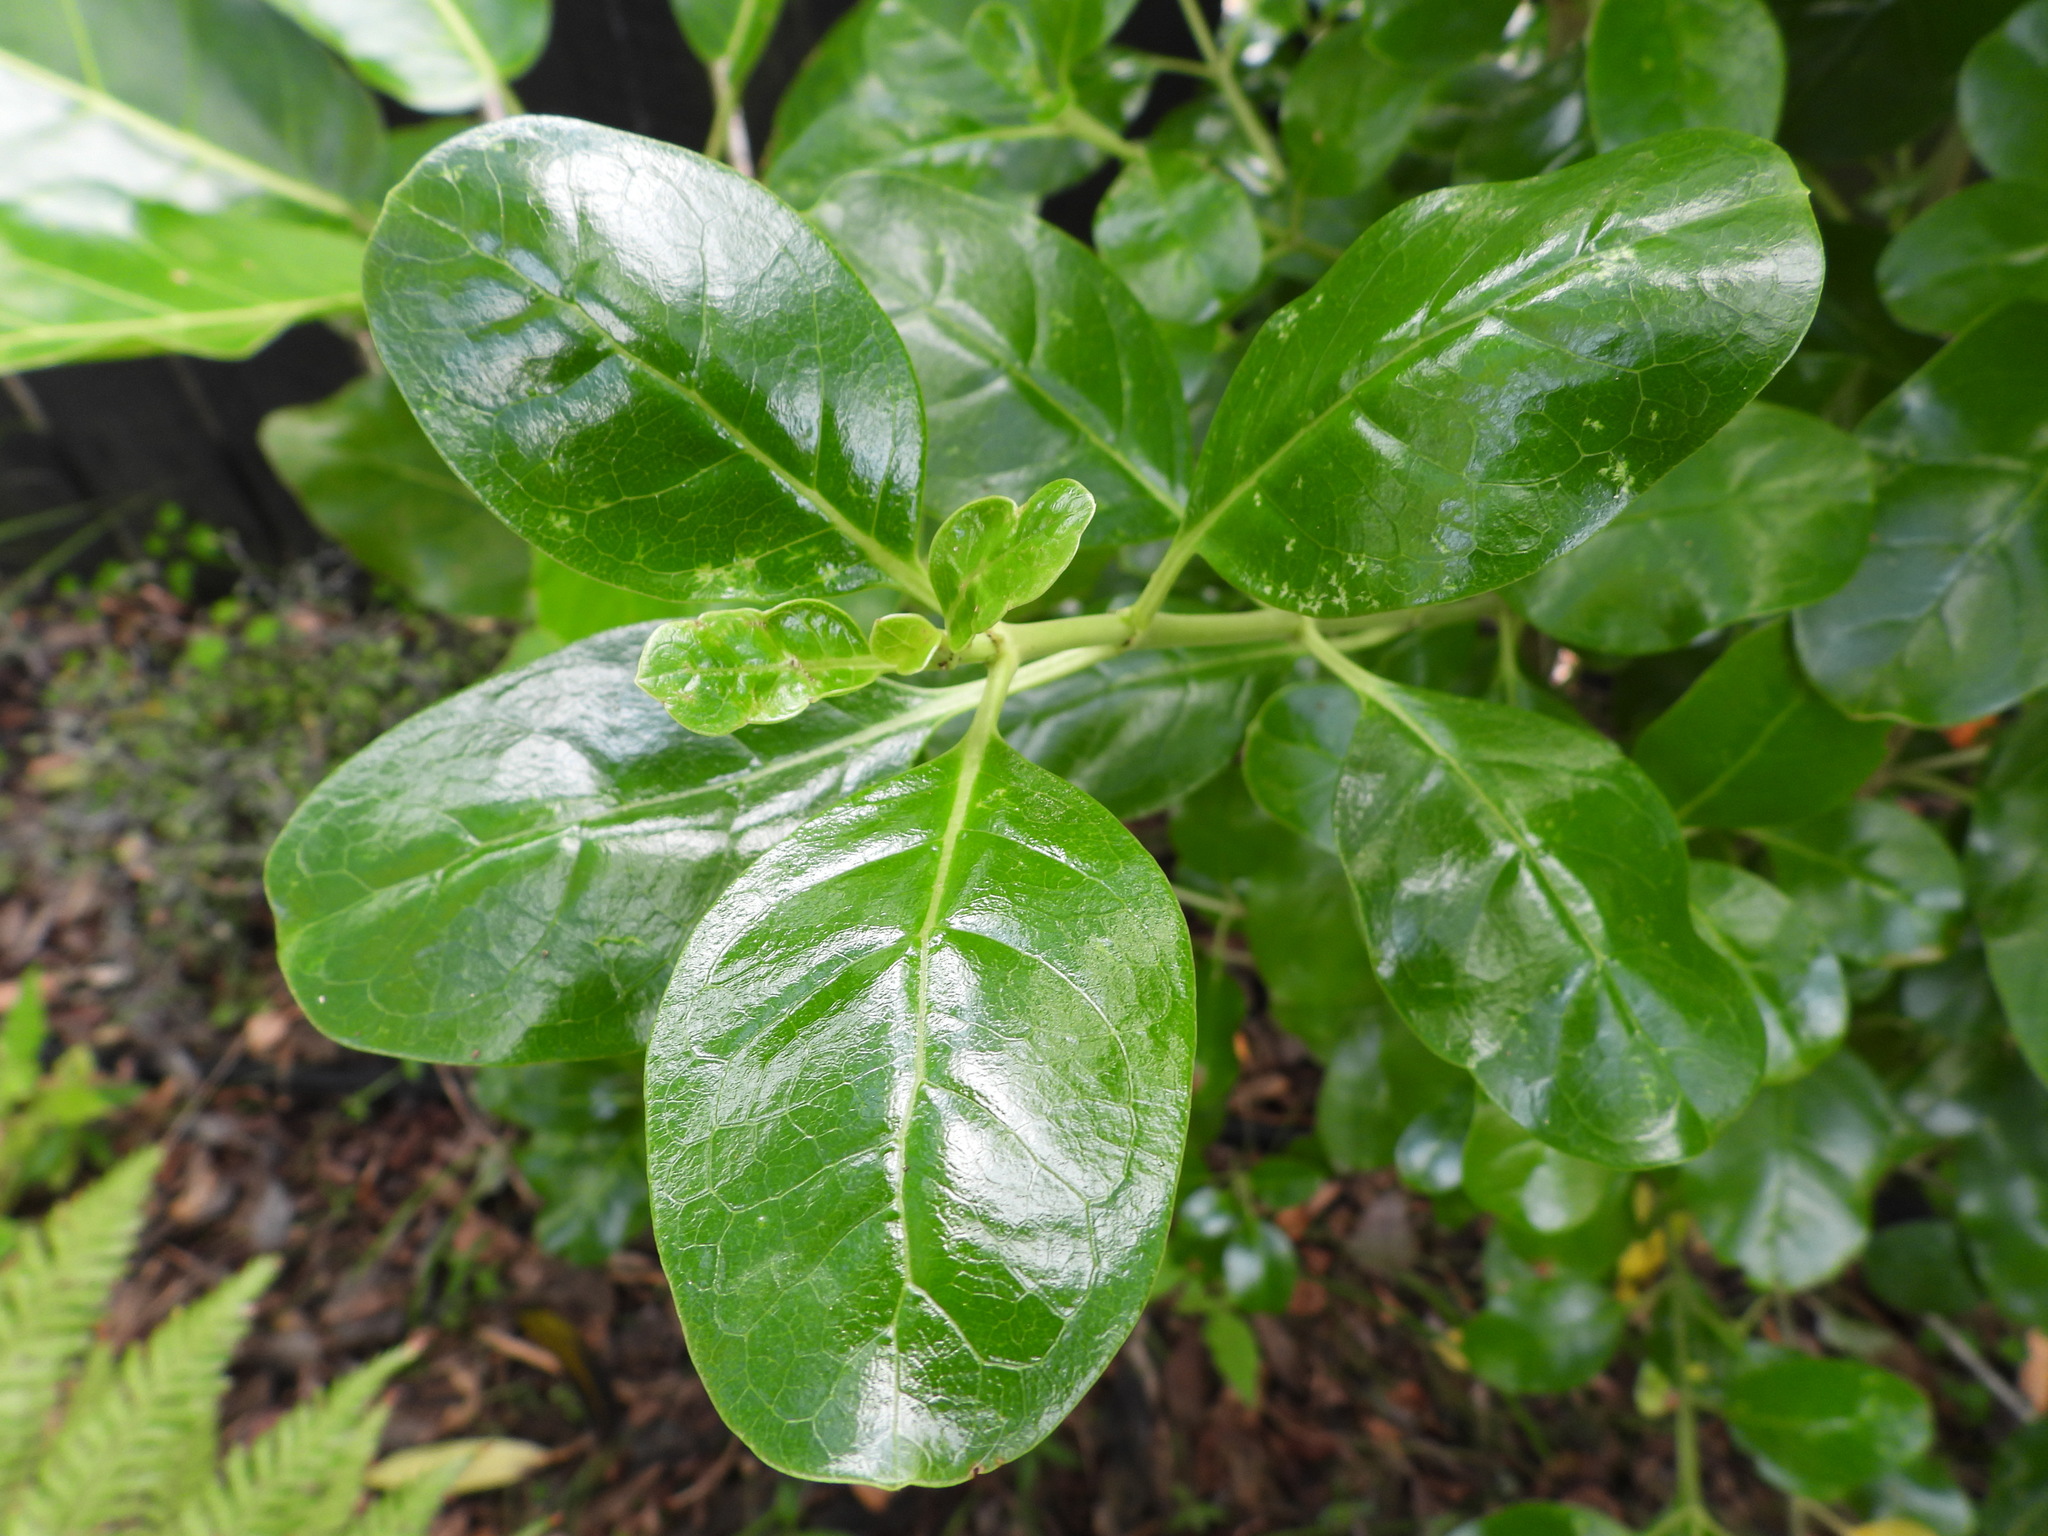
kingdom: Plantae
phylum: Tracheophyta
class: Magnoliopsida
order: Gentianales
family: Rubiaceae
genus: Coprosma
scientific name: Coprosma repens
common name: Tree bedstraw
